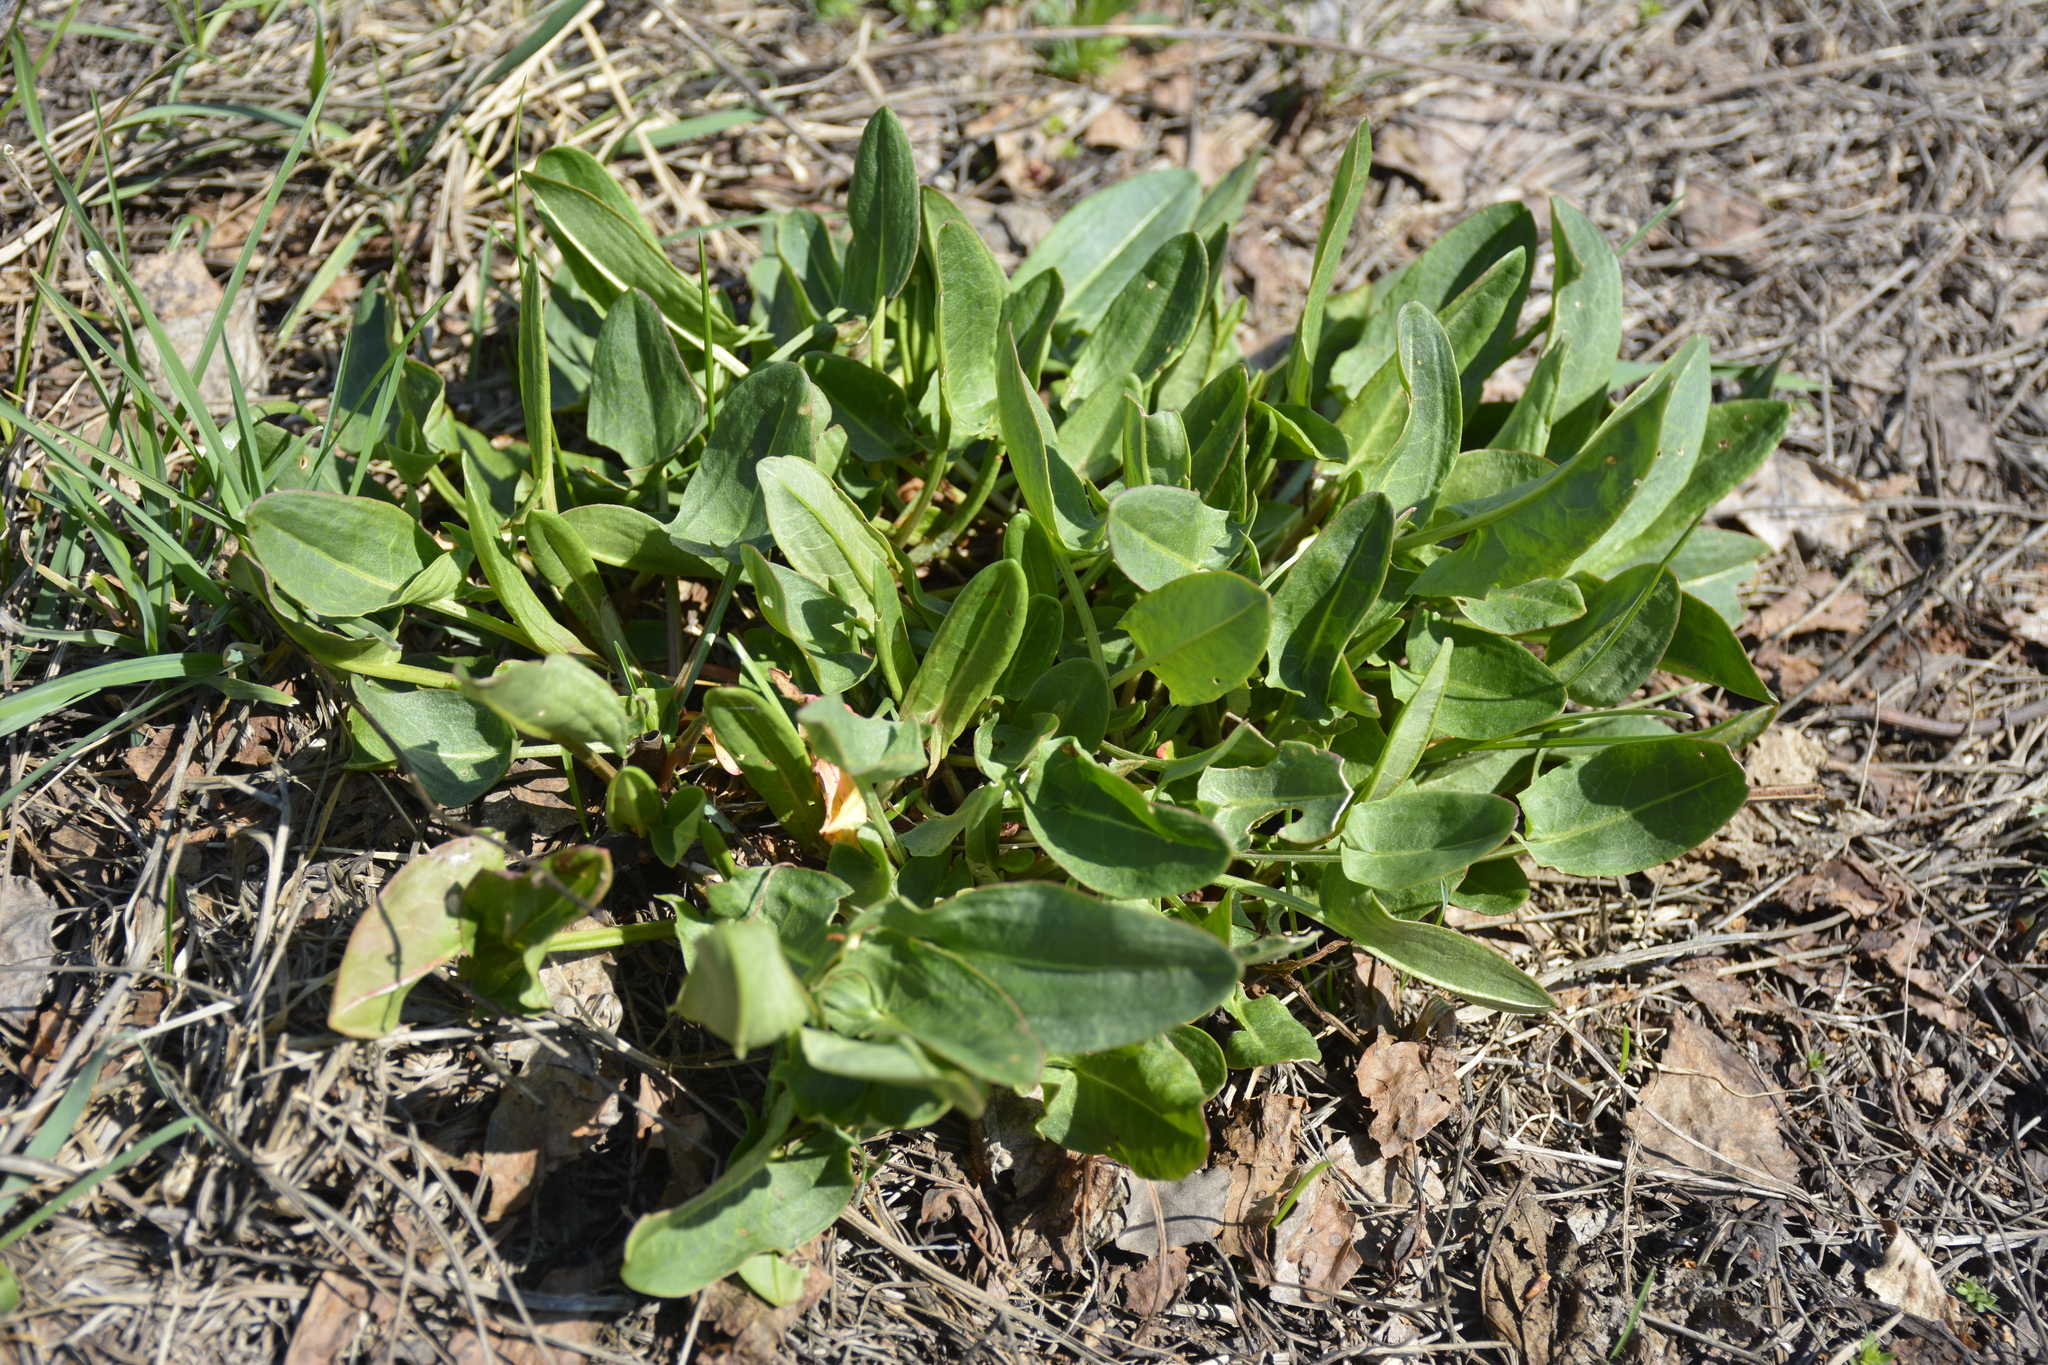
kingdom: Plantae
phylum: Tracheophyta
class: Magnoliopsida
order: Caryophyllales
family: Polygonaceae
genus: Rumex
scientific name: Rumex thyrsiflorus
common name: Garden sorrel
